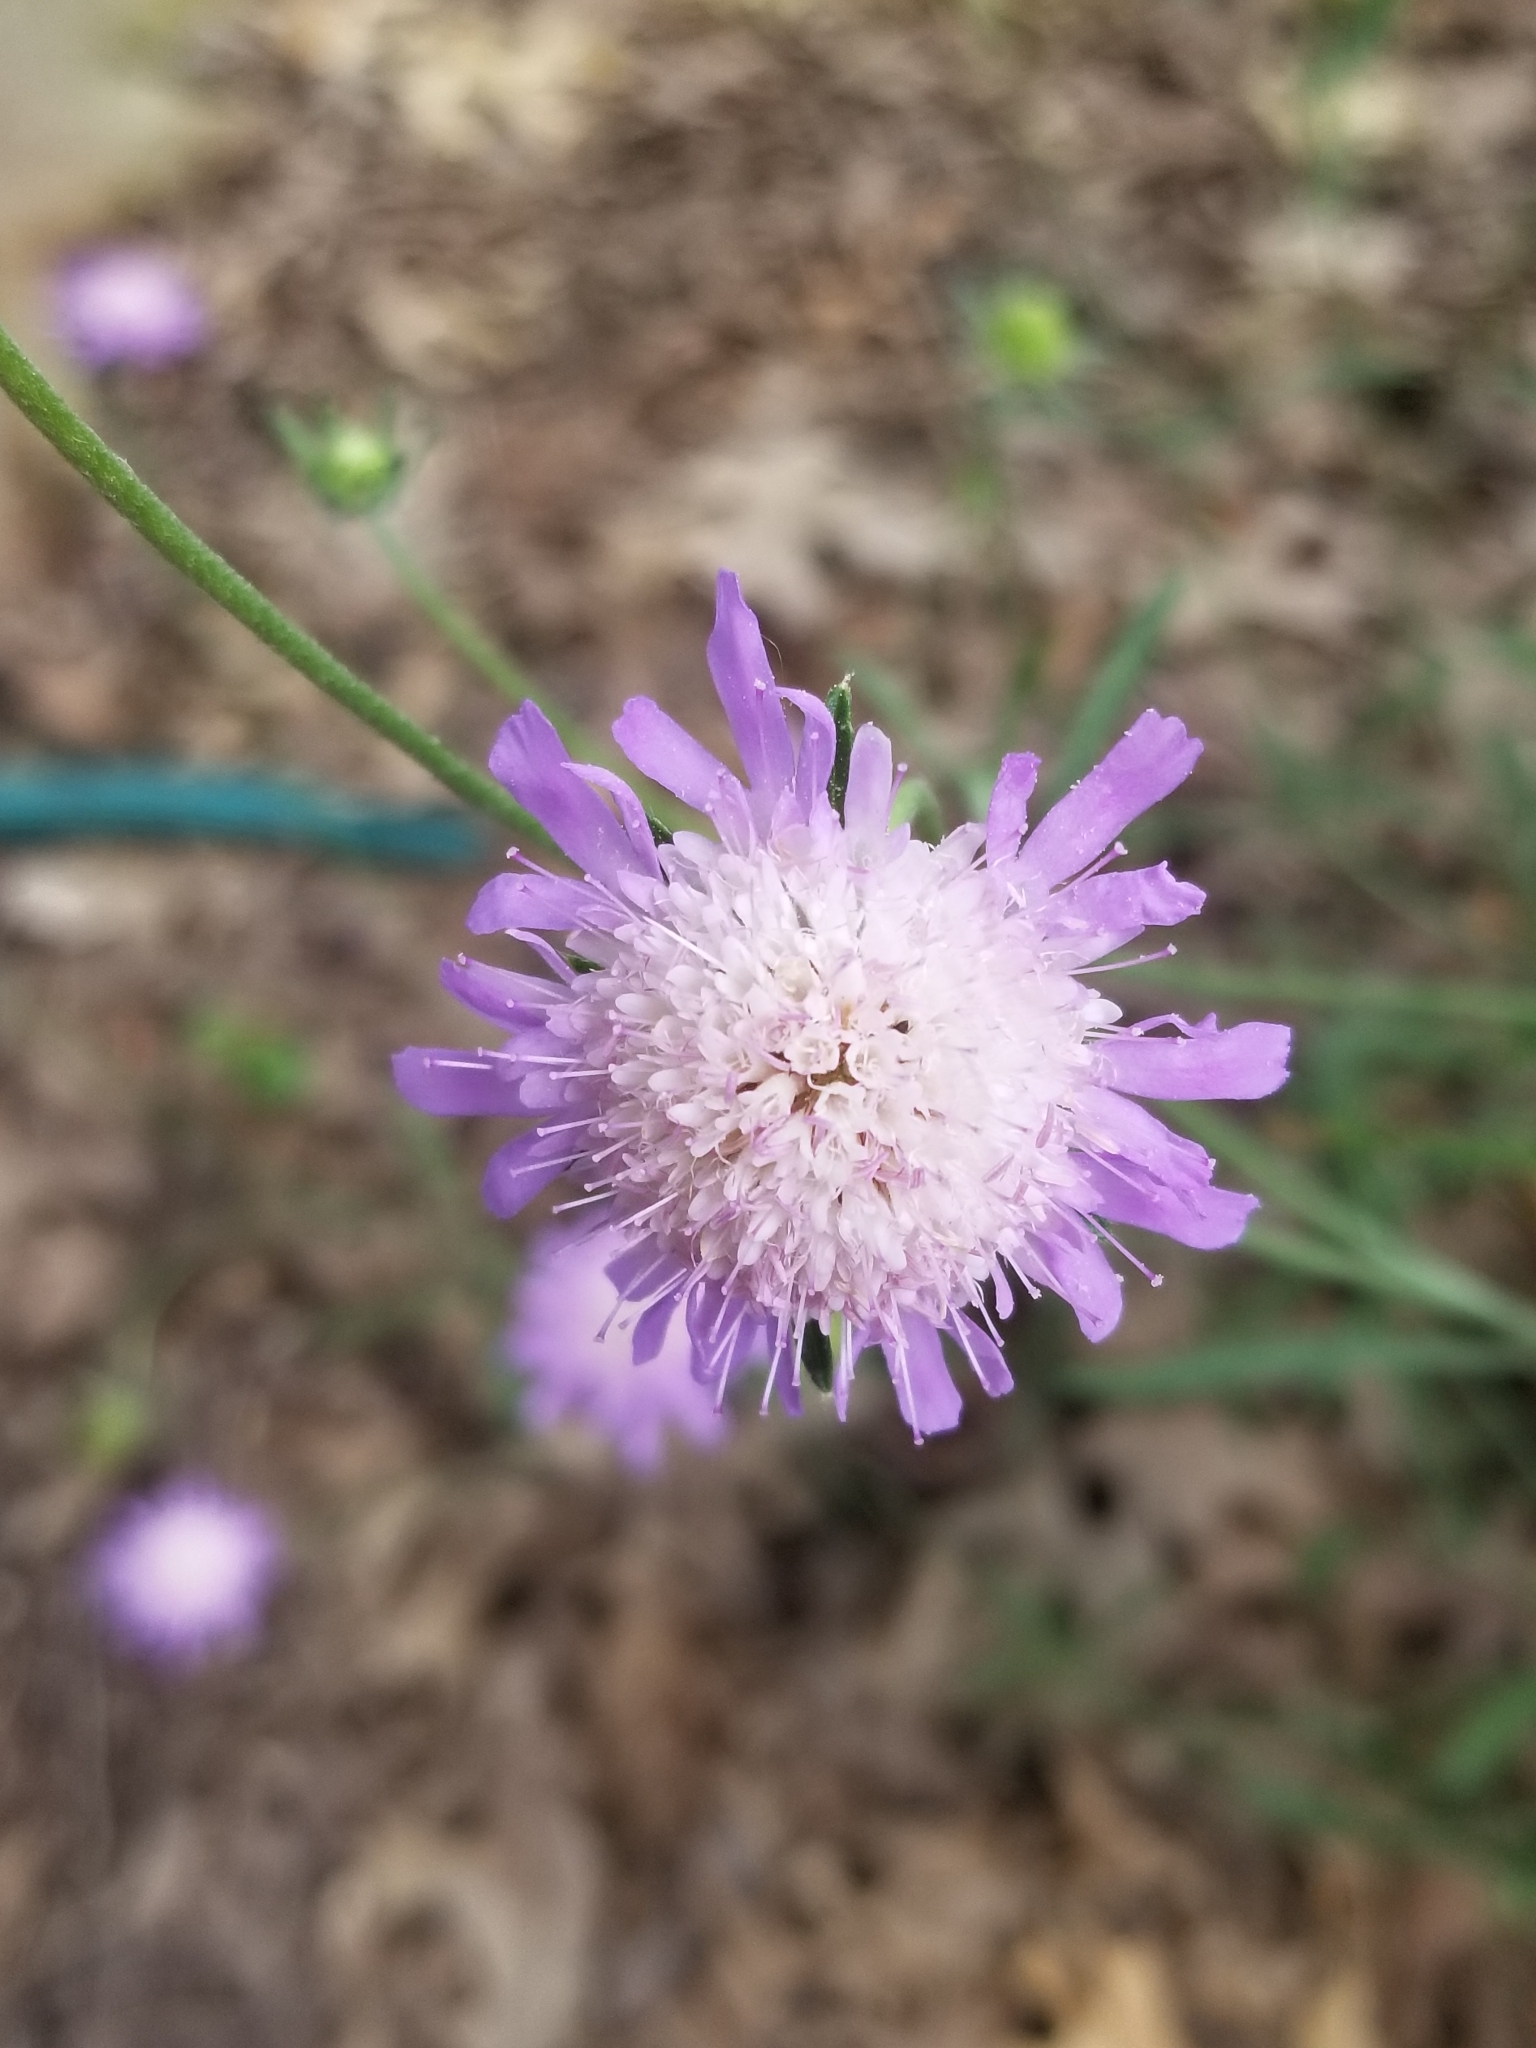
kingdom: Plantae
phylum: Tracheophyta
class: Magnoliopsida
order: Dipsacales
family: Caprifoliaceae
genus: Sixalix
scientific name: Sixalix atropurpurea
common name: Sweet scabious
